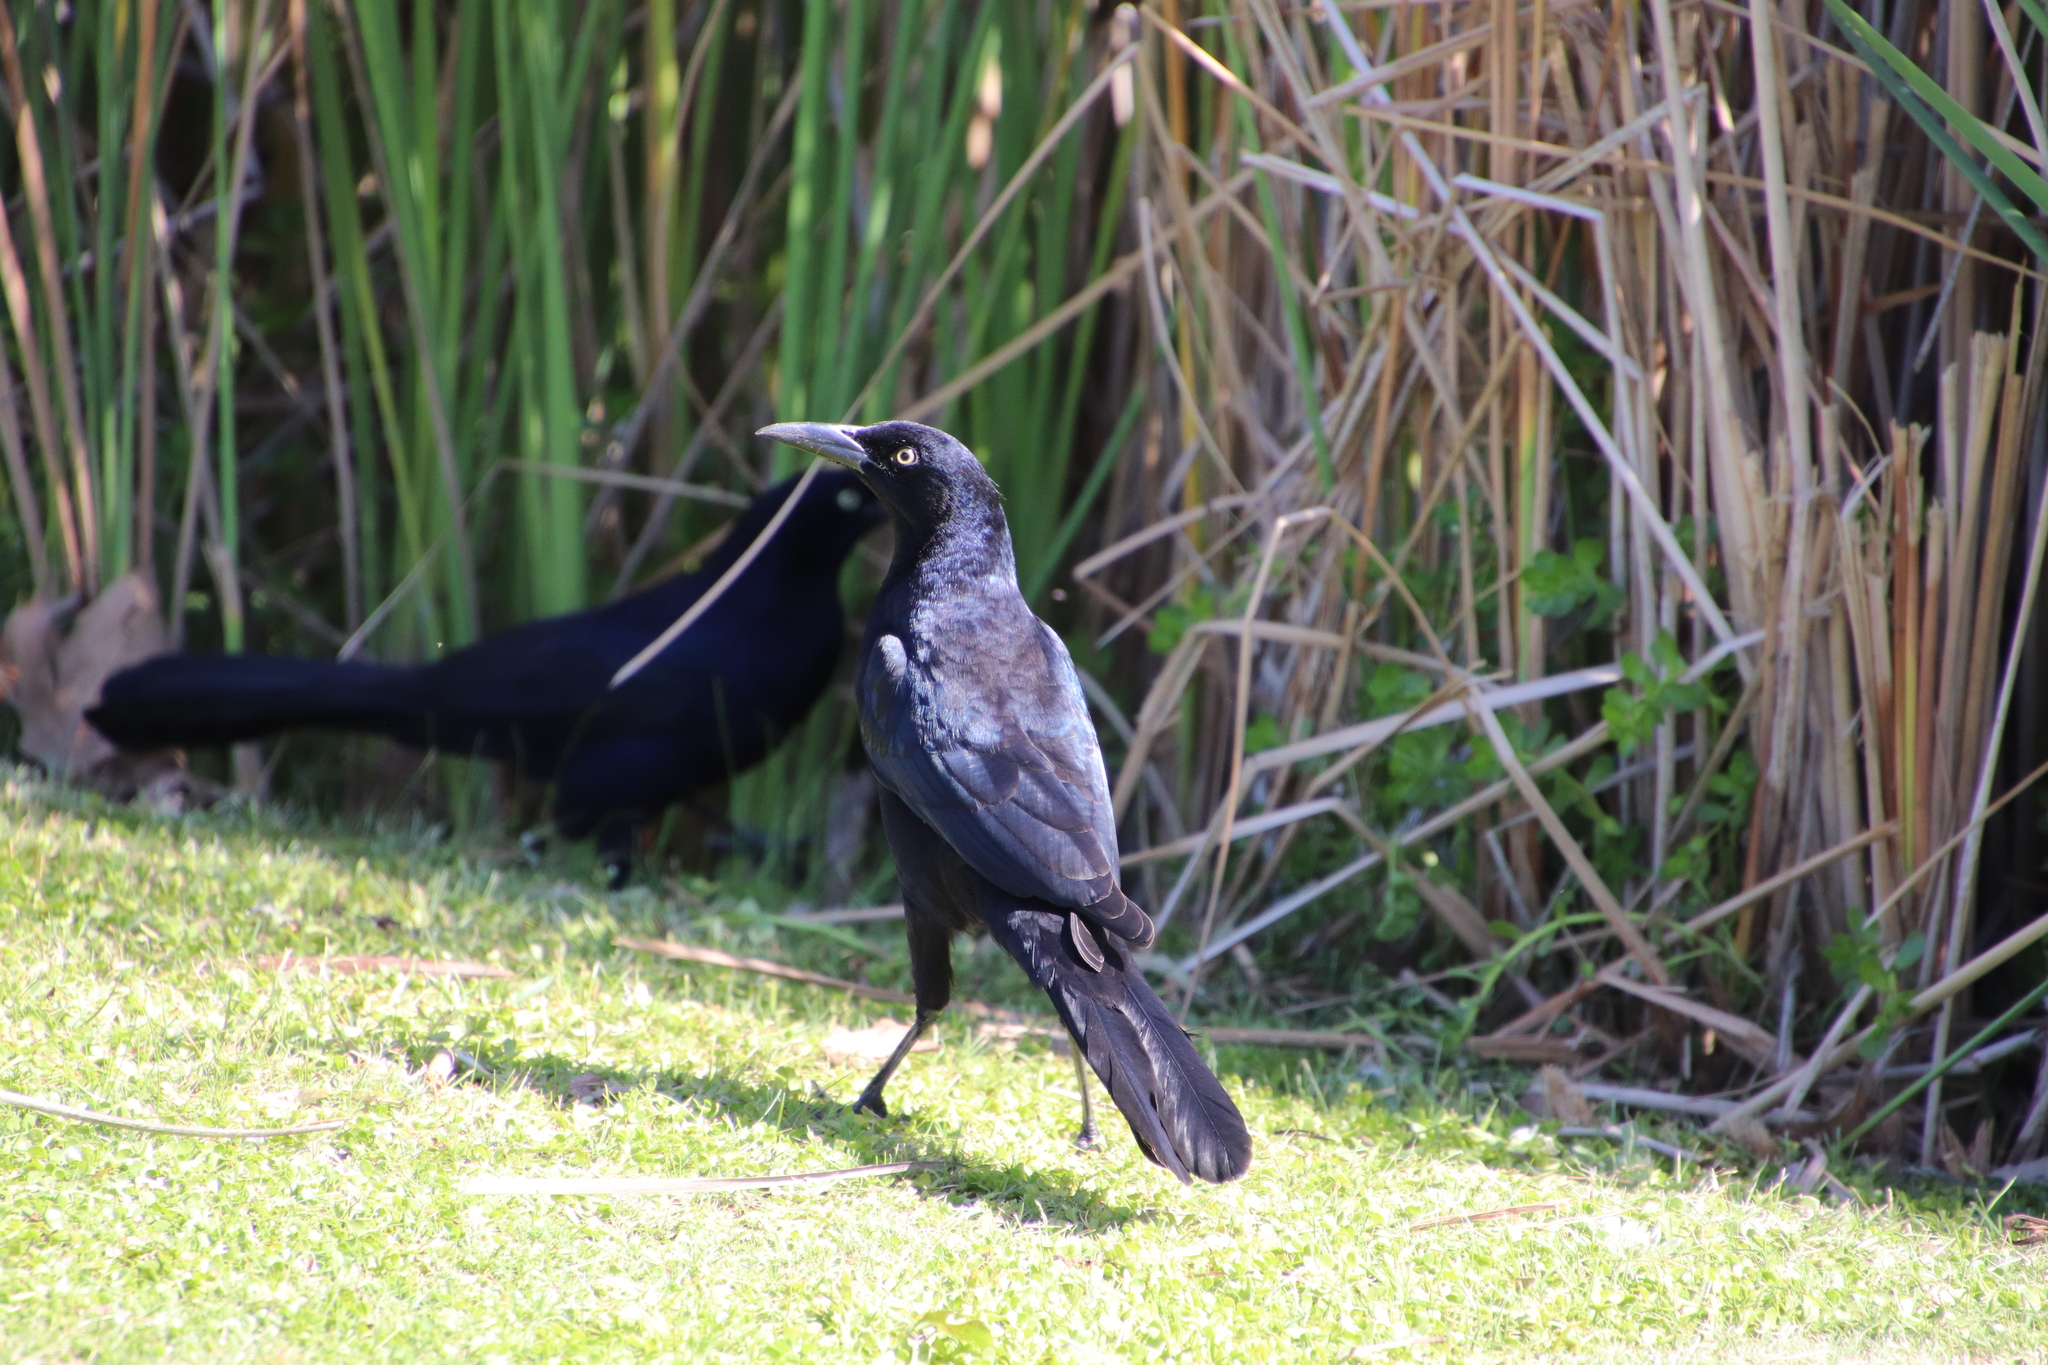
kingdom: Animalia
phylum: Chordata
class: Aves
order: Passeriformes
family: Icteridae
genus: Quiscalus
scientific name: Quiscalus mexicanus
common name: Great-tailed grackle
